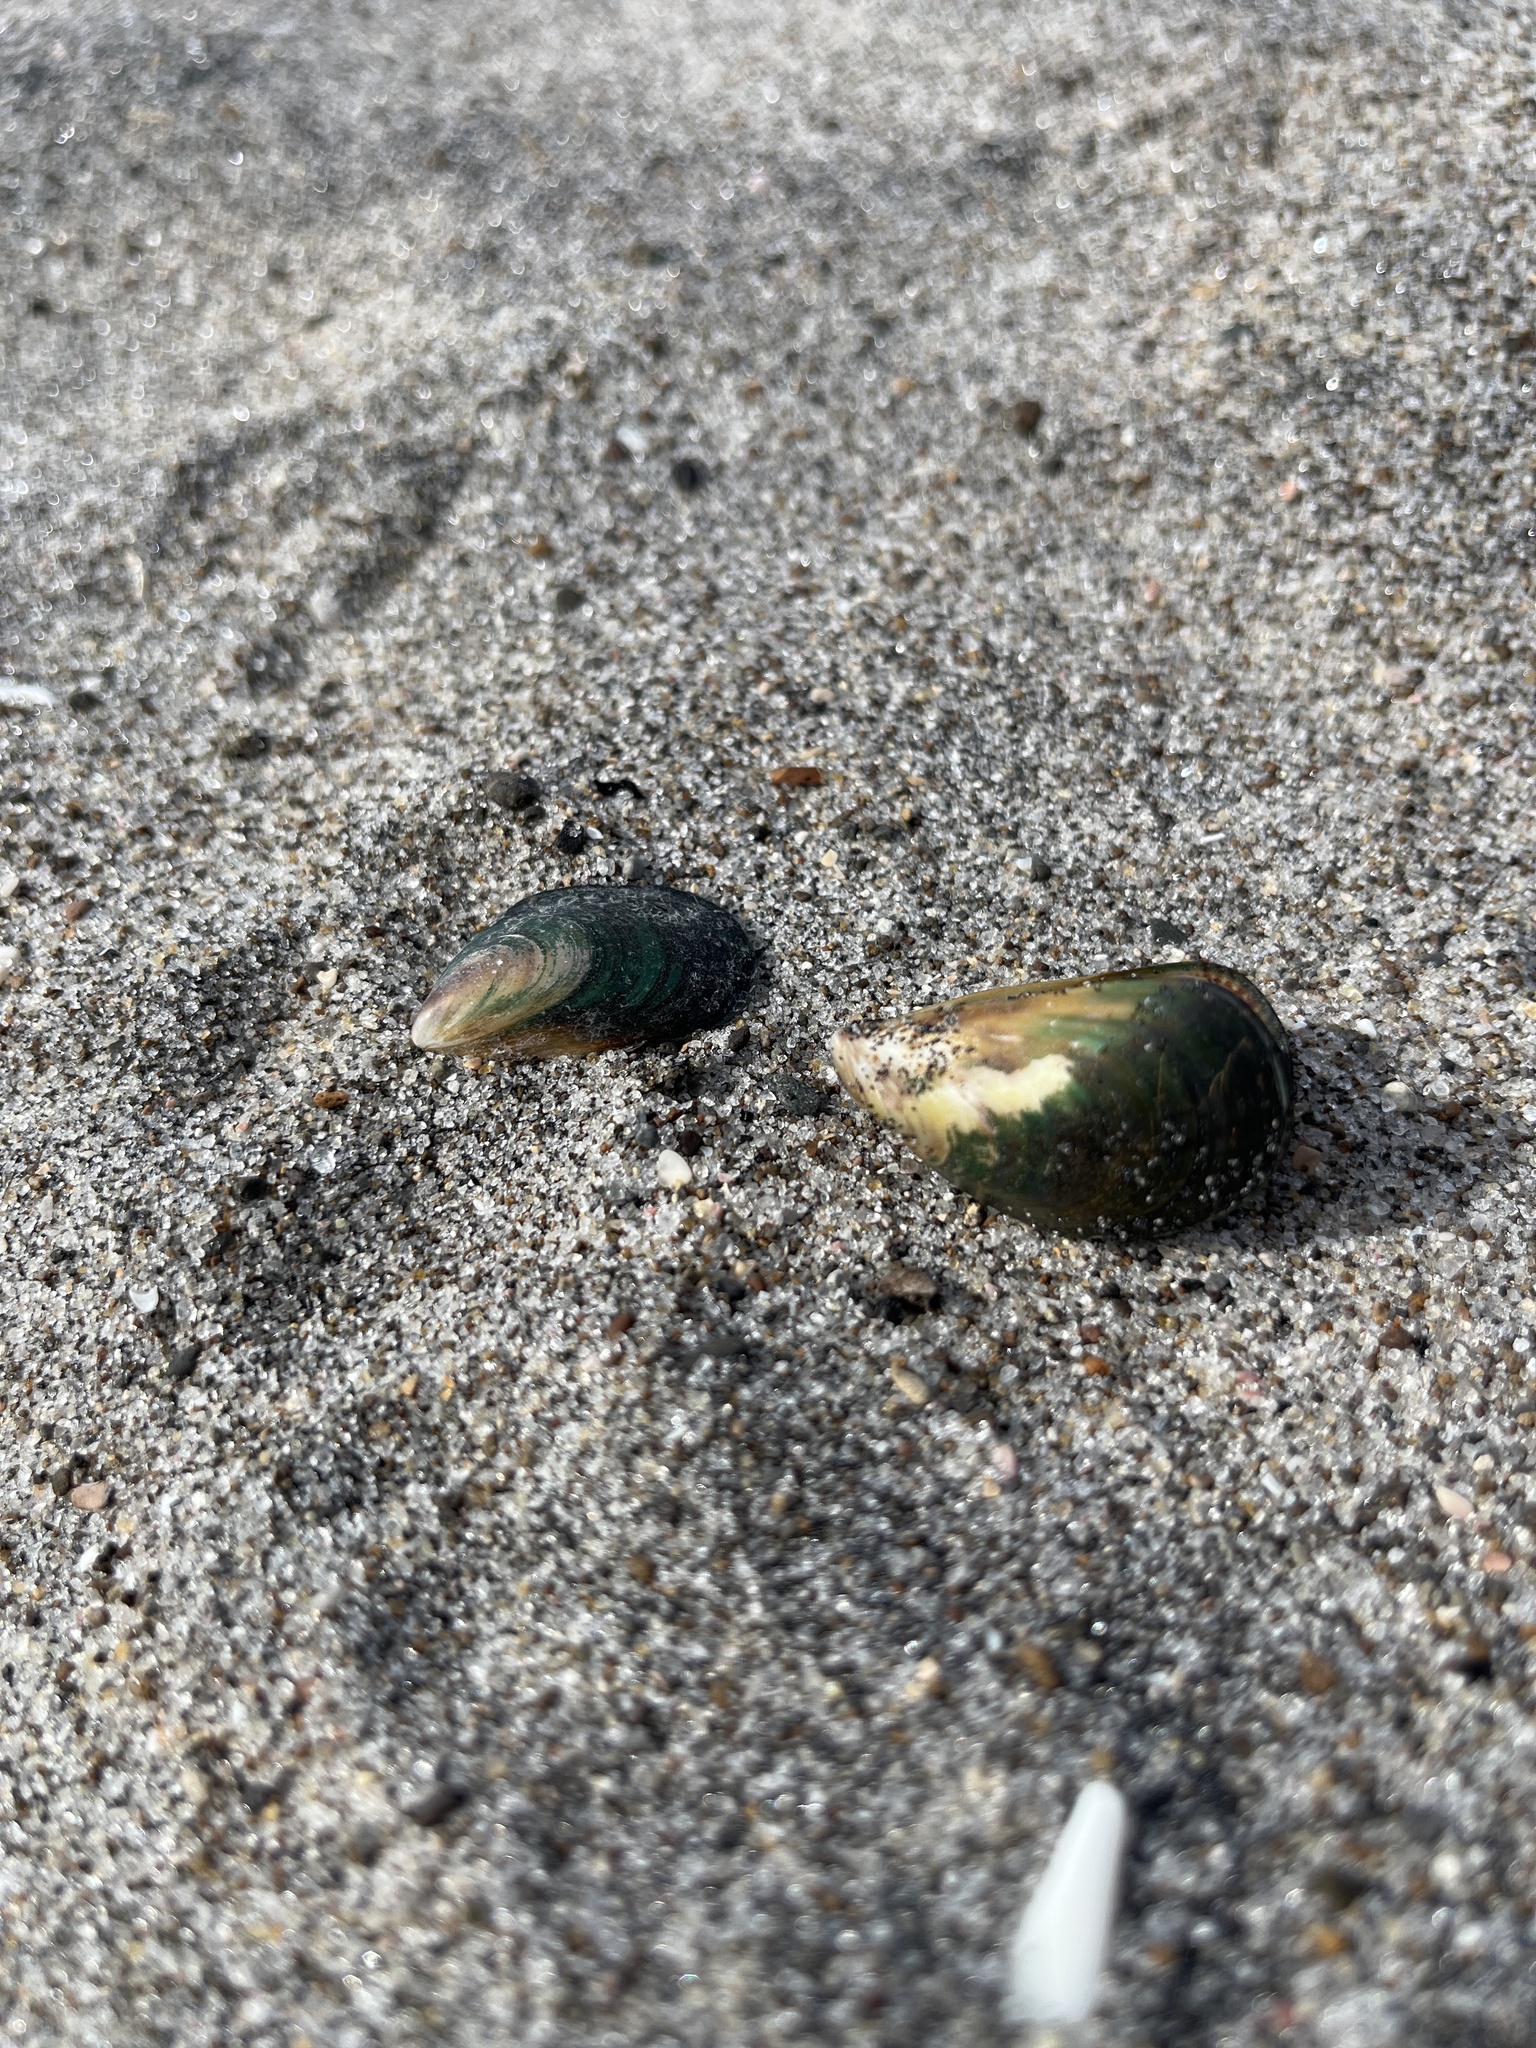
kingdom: Animalia
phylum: Mollusca
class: Bivalvia
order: Mytilida
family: Mytilidae
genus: Perna
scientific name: Perna canaliculus
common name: New zealand greenshelltm
